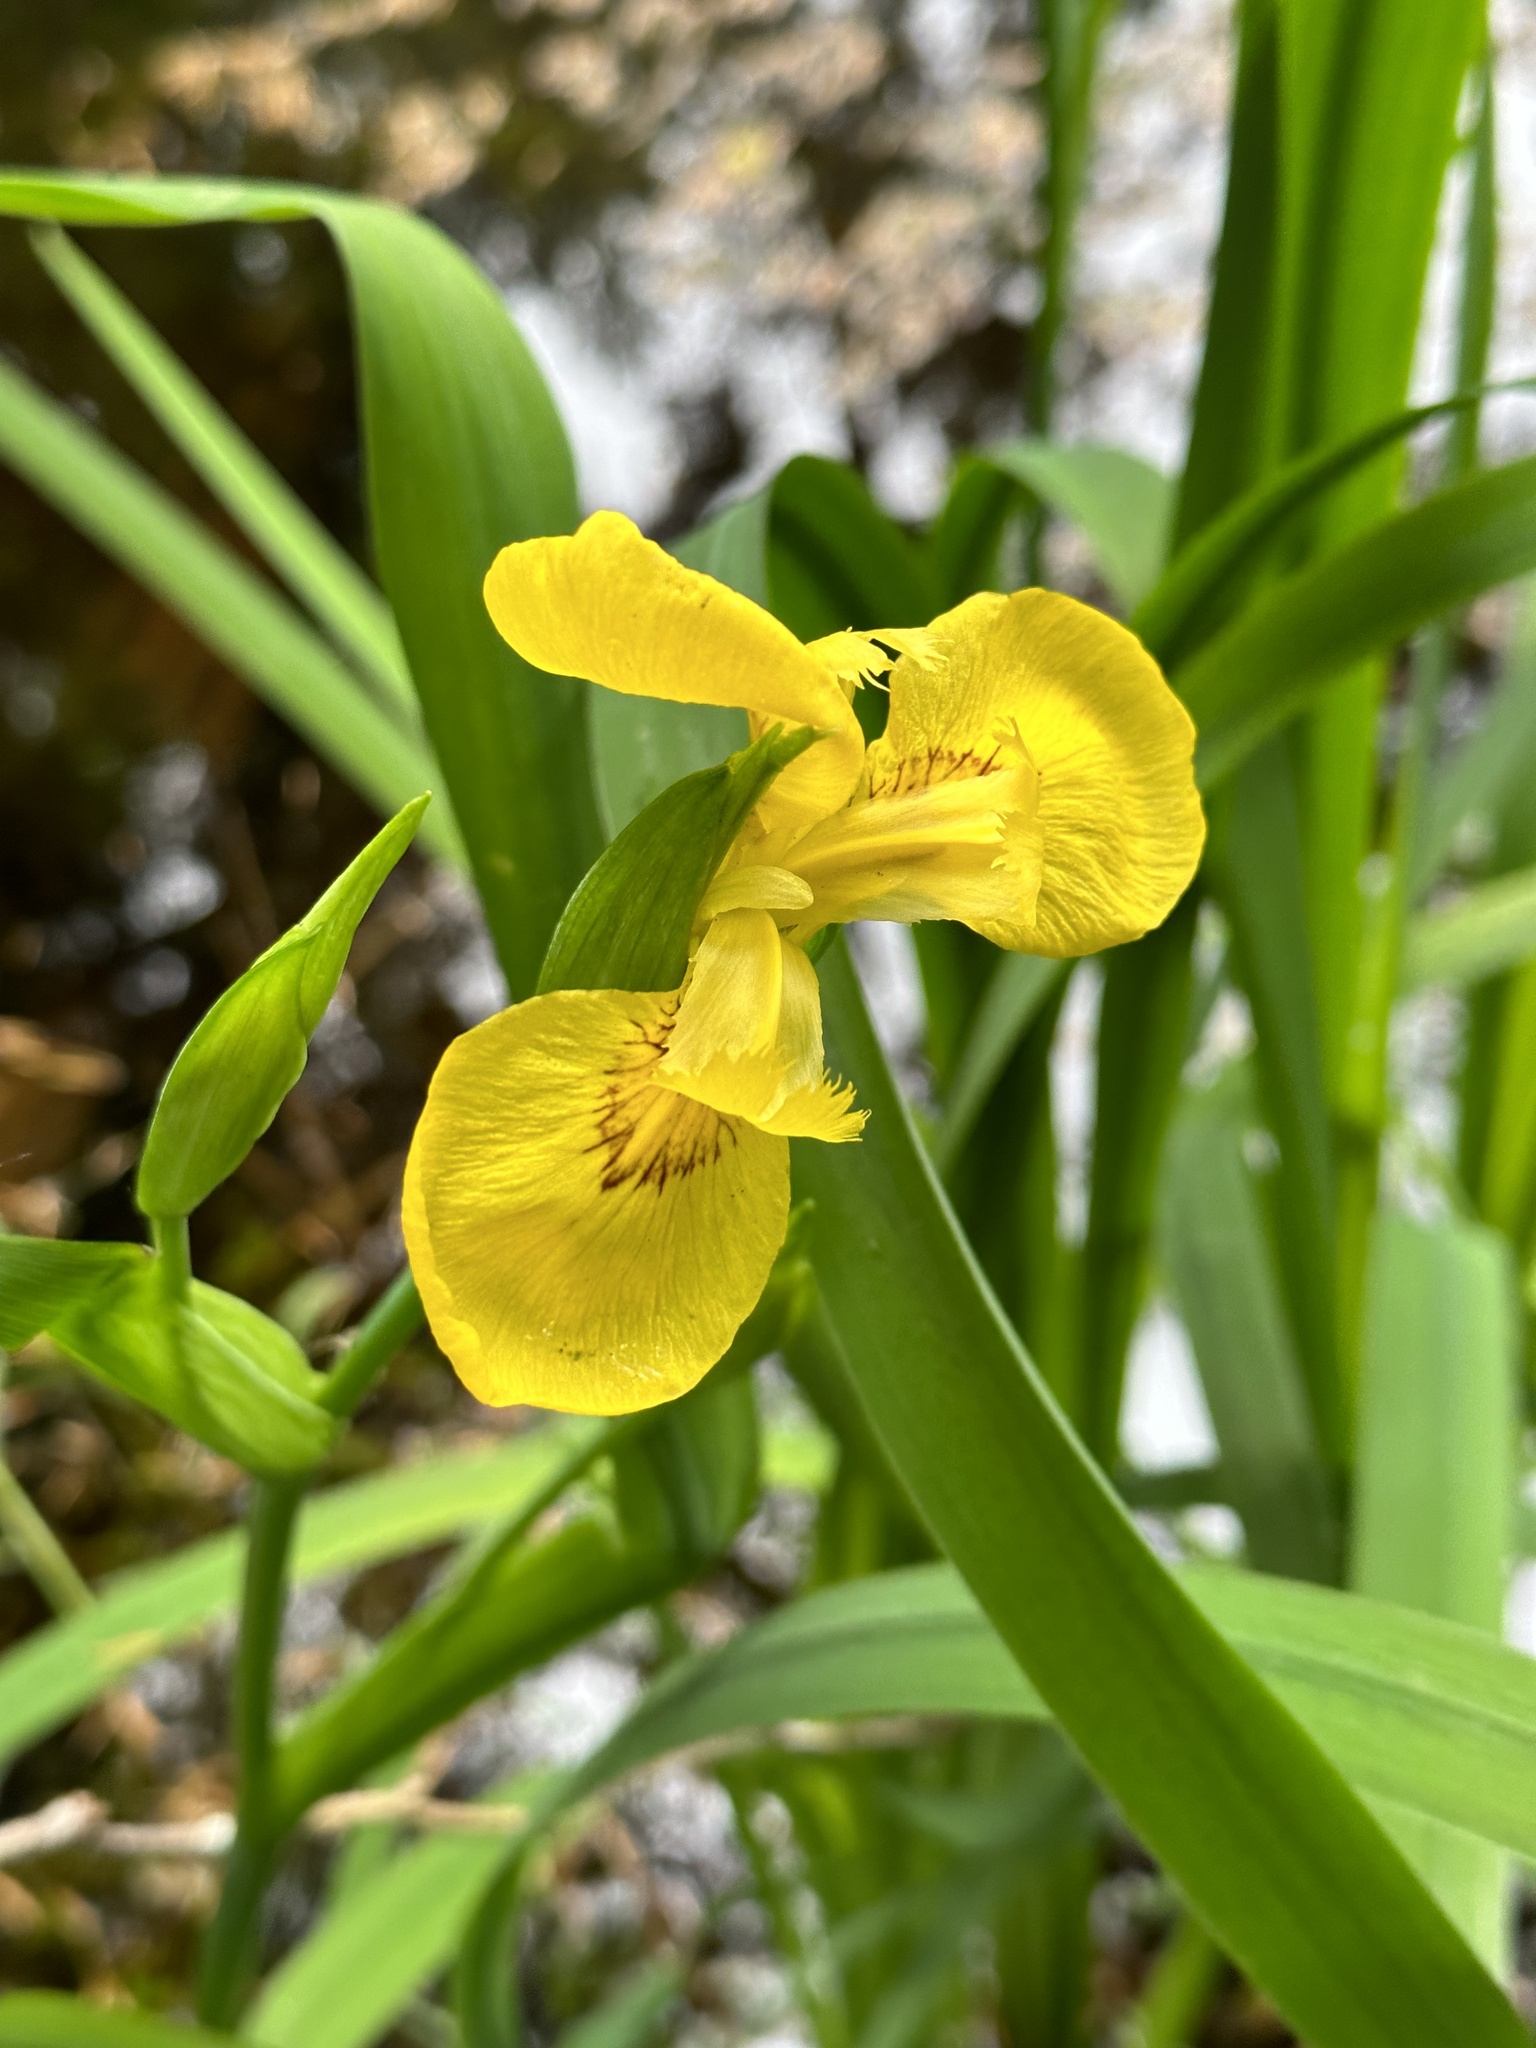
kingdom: Plantae
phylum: Tracheophyta
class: Liliopsida
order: Asparagales
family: Iridaceae
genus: Iris
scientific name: Iris pseudacorus
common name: Yellow flag
